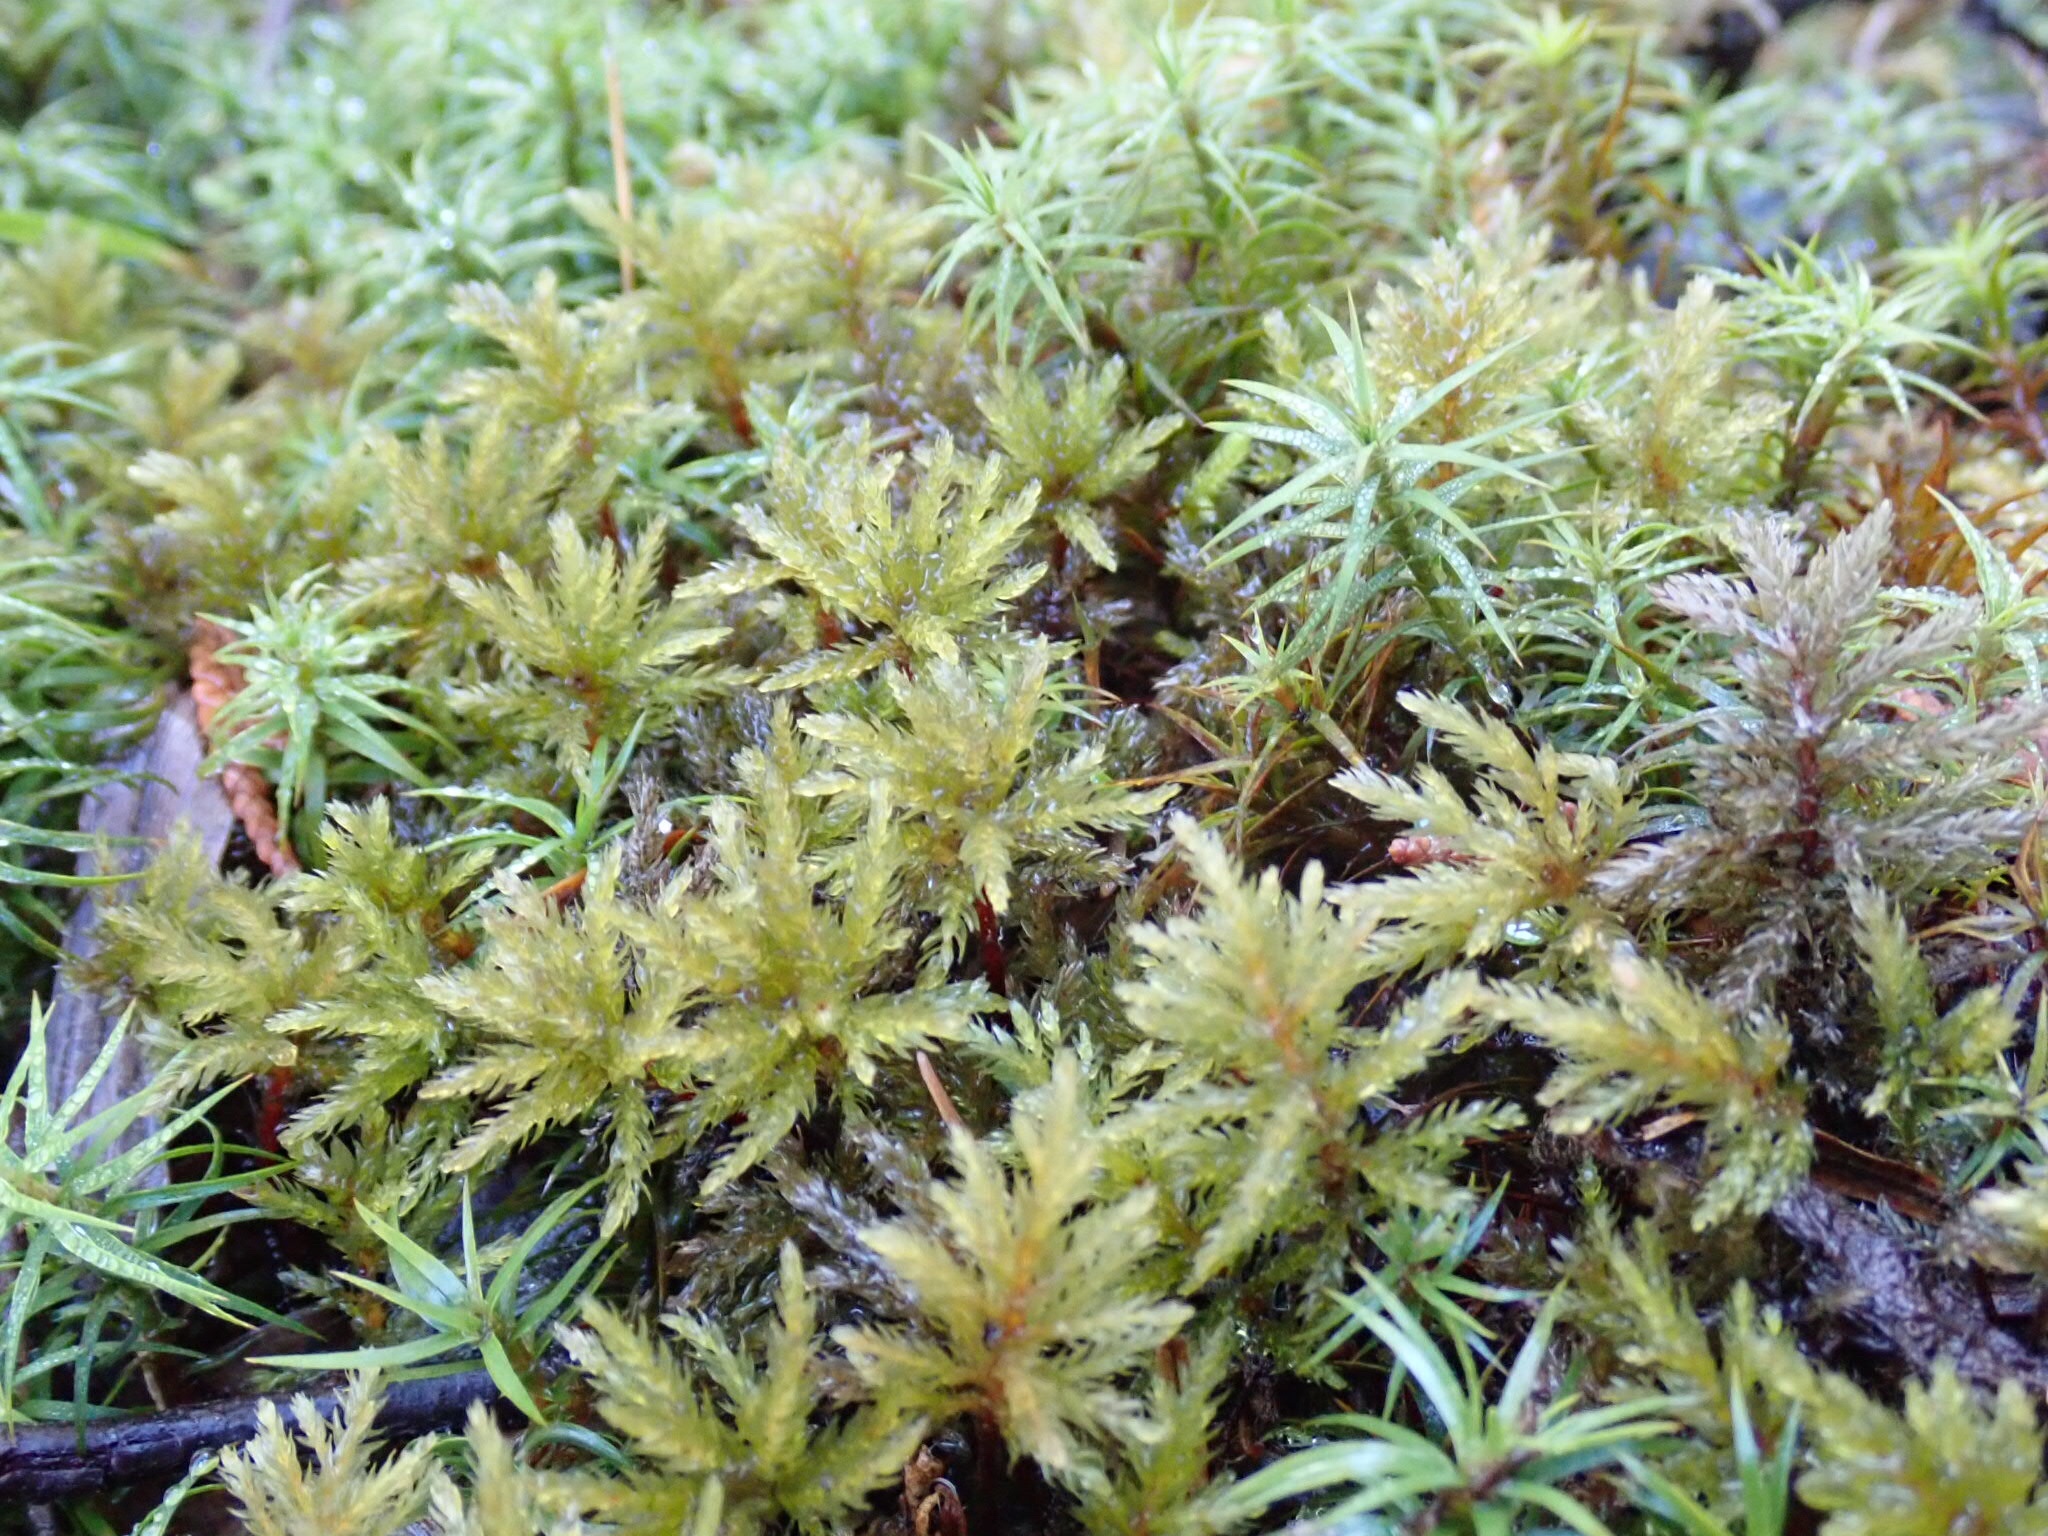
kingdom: Plantae
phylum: Bryophyta
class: Polytrichopsida
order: Polytrichales
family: Polytrichaceae
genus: Polytrichum
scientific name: Polytrichum commune
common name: Common haircap
